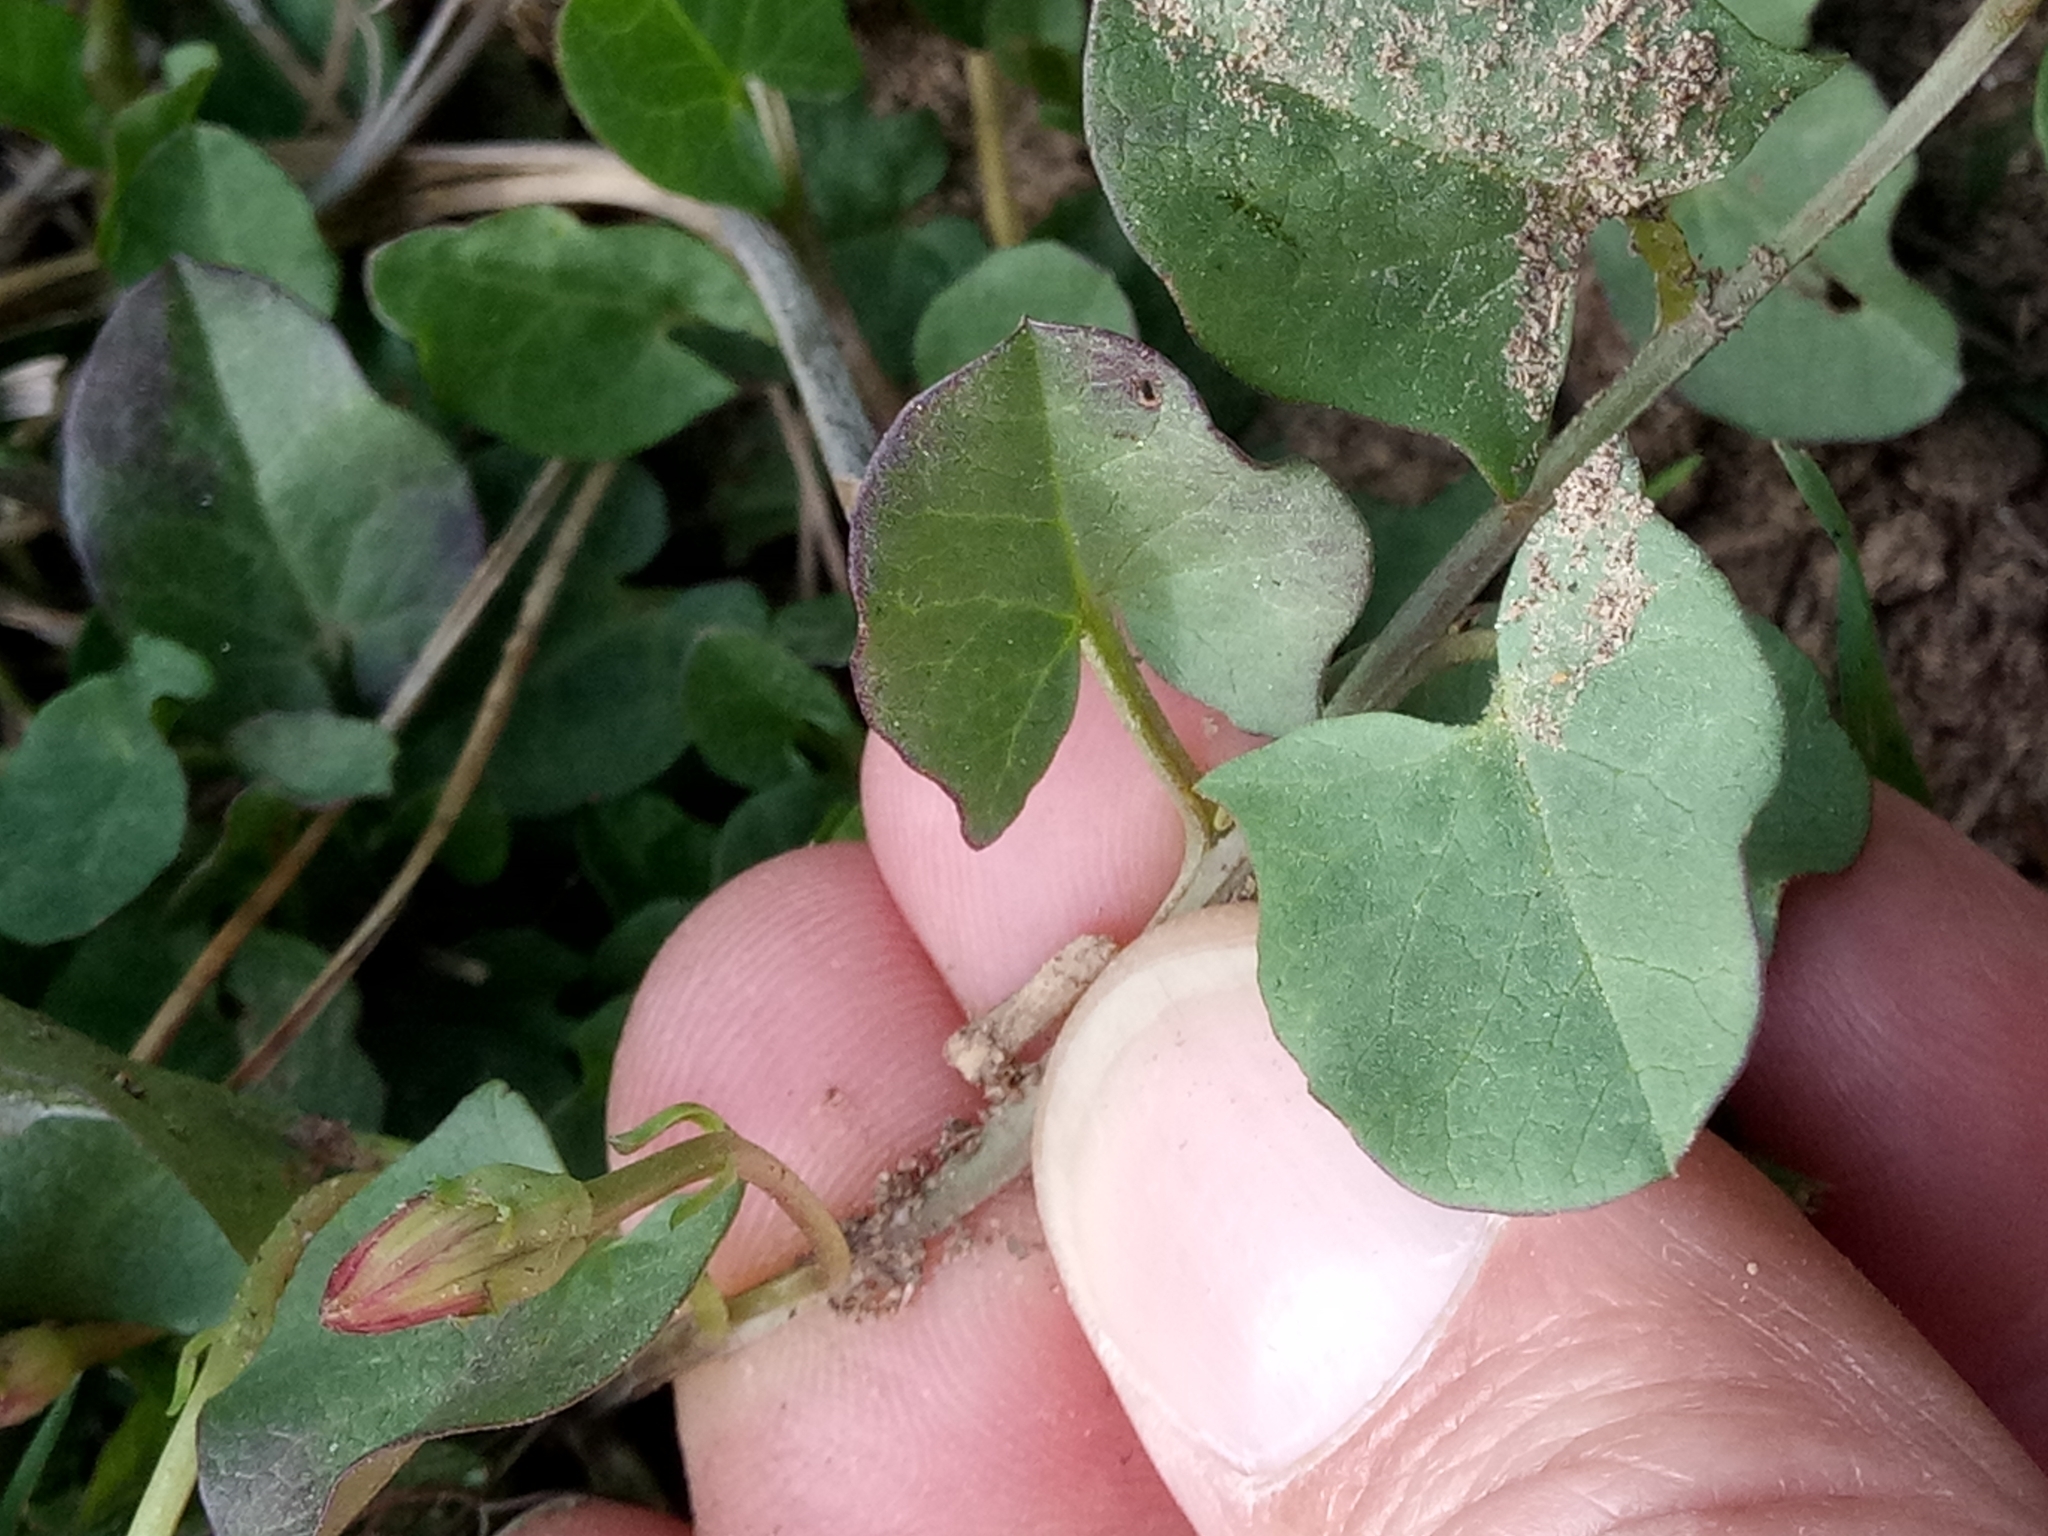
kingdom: Plantae
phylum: Tracheophyta
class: Magnoliopsida
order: Solanales
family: Convolvulaceae
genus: Convolvulus
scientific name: Convolvulus durandoi
